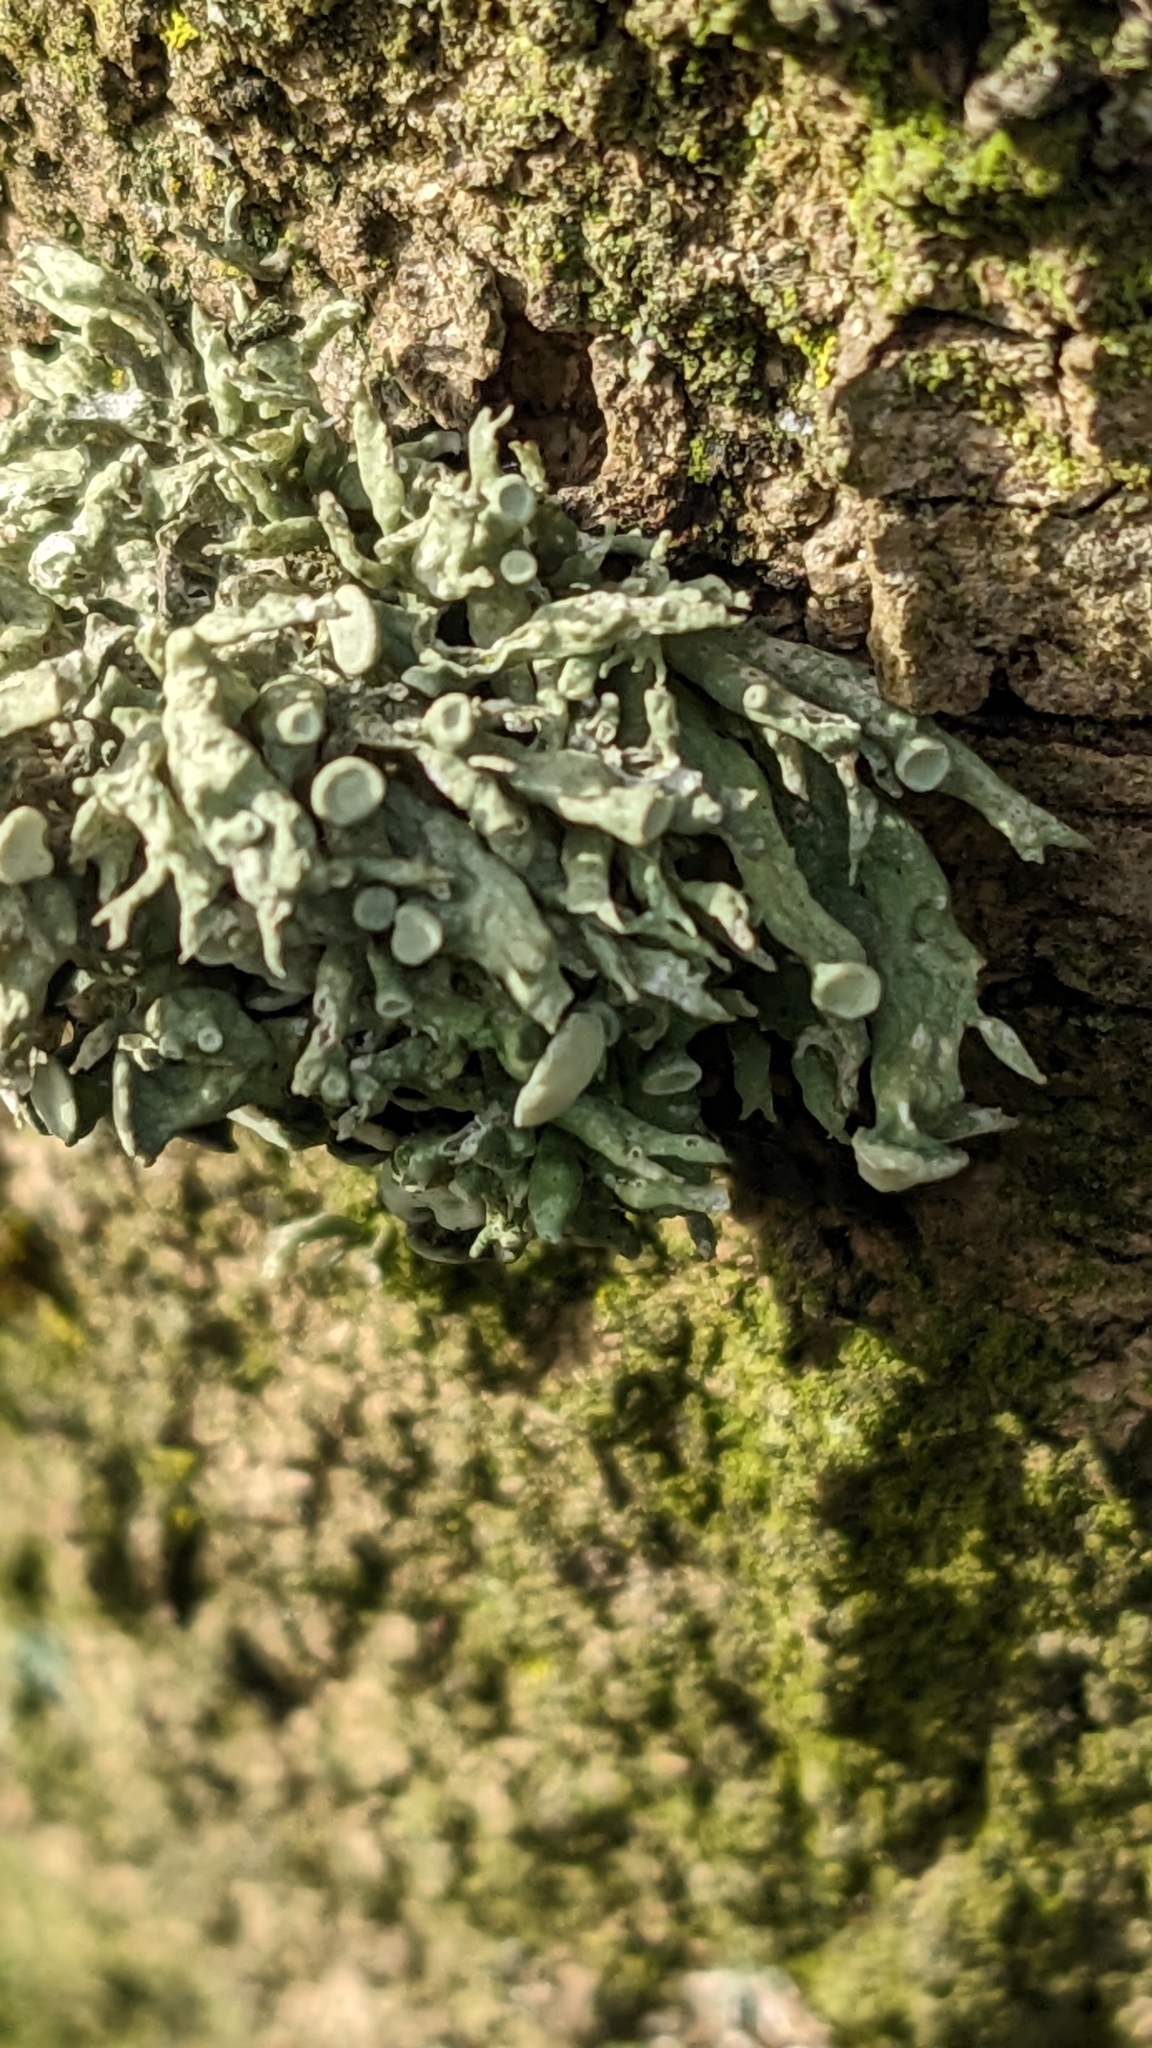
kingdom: Fungi
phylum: Ascomycota
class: Lecanoromycetes
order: Lecanorales
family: Ramalinaceae
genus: Ramalina
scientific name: Ramalina fastigiata
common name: Dotted ribbon lichen
